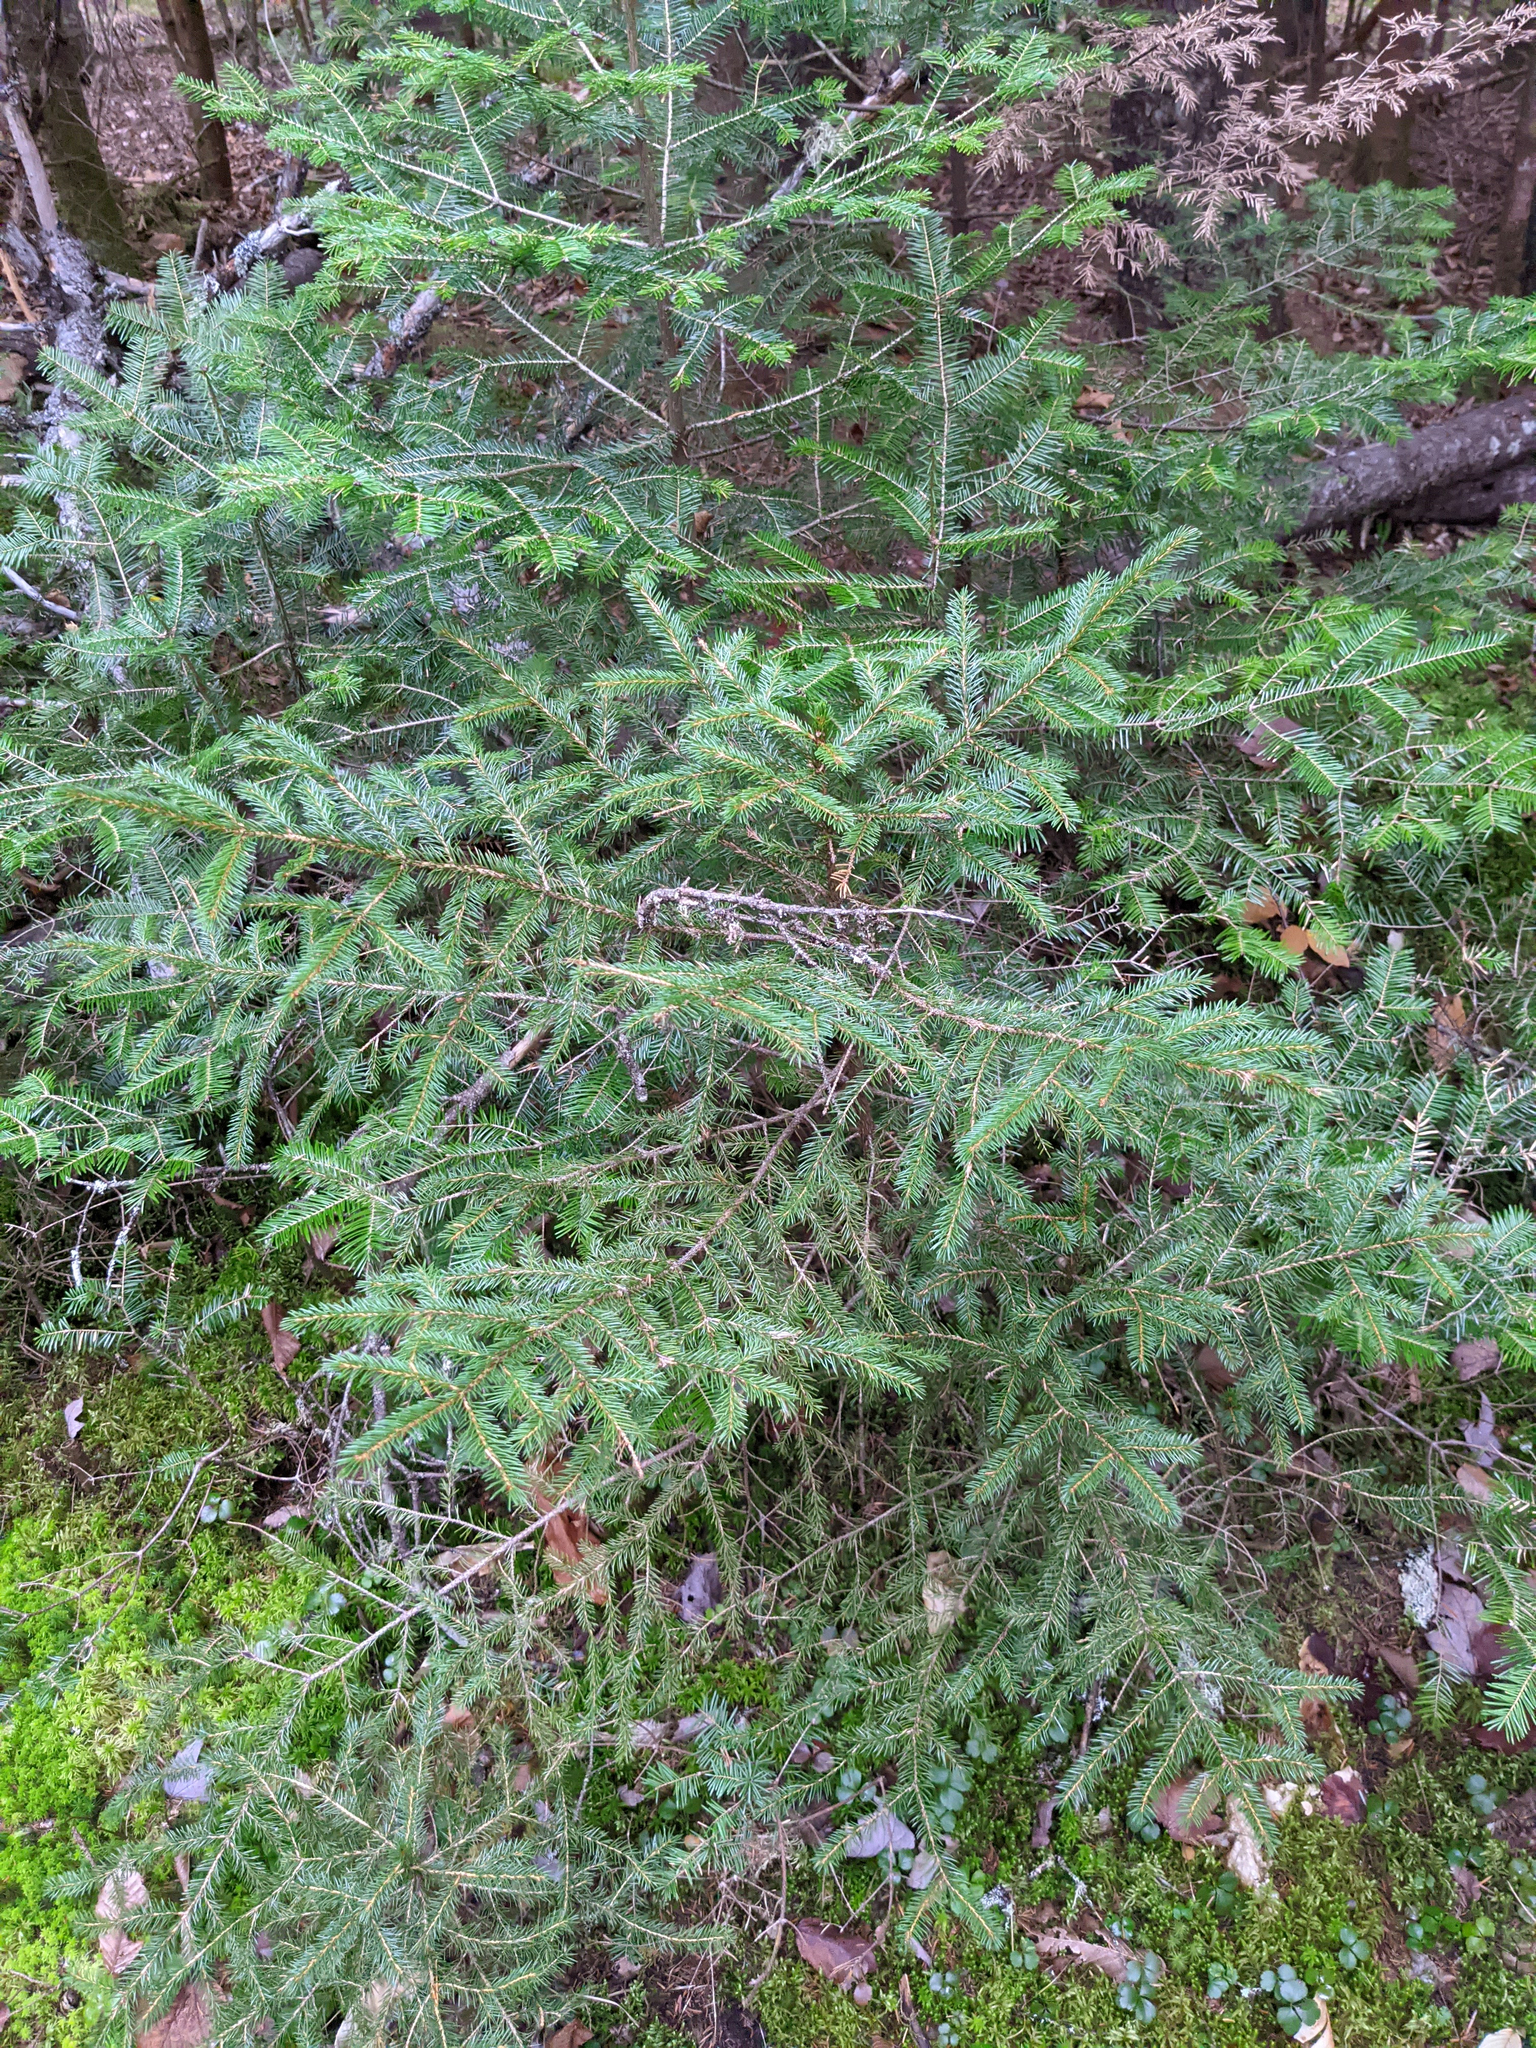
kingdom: Plantae
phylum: Tracheophyta
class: Pinopsida
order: Pinales
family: Pinaceae
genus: Picea
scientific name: Picea rubens
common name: Red spruce
